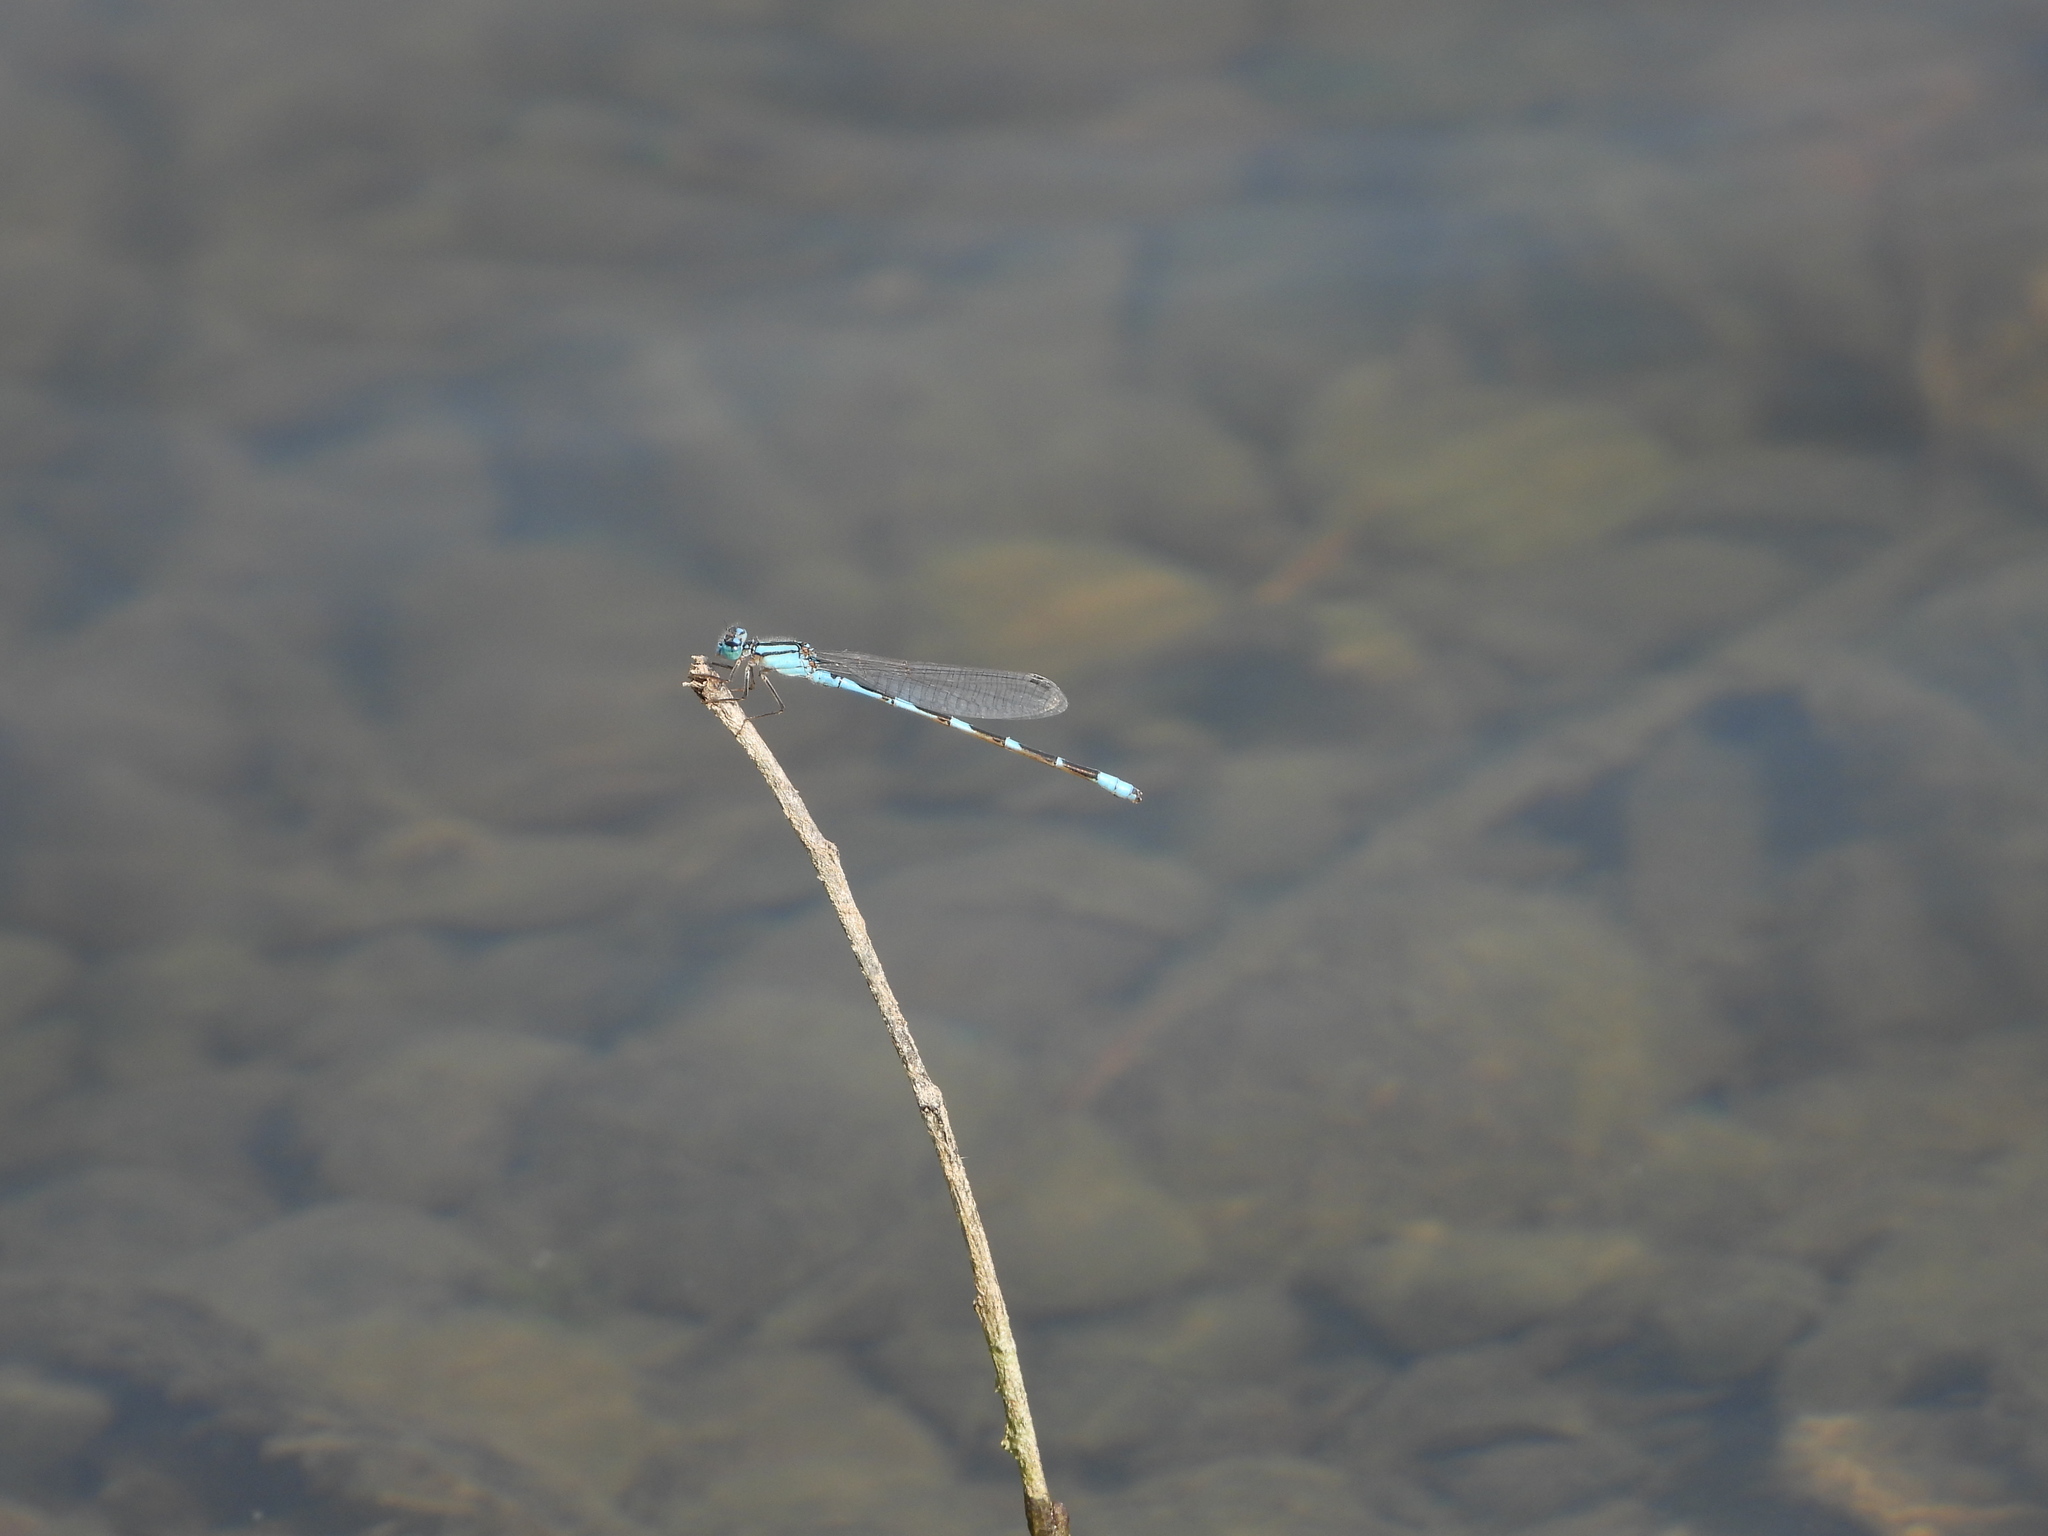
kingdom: Animalia
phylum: Arthropoda
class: Insecta
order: Odonata
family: Coenagrionidae
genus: Enallagma
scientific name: Enallagma carunculatum
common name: Tule bluet
